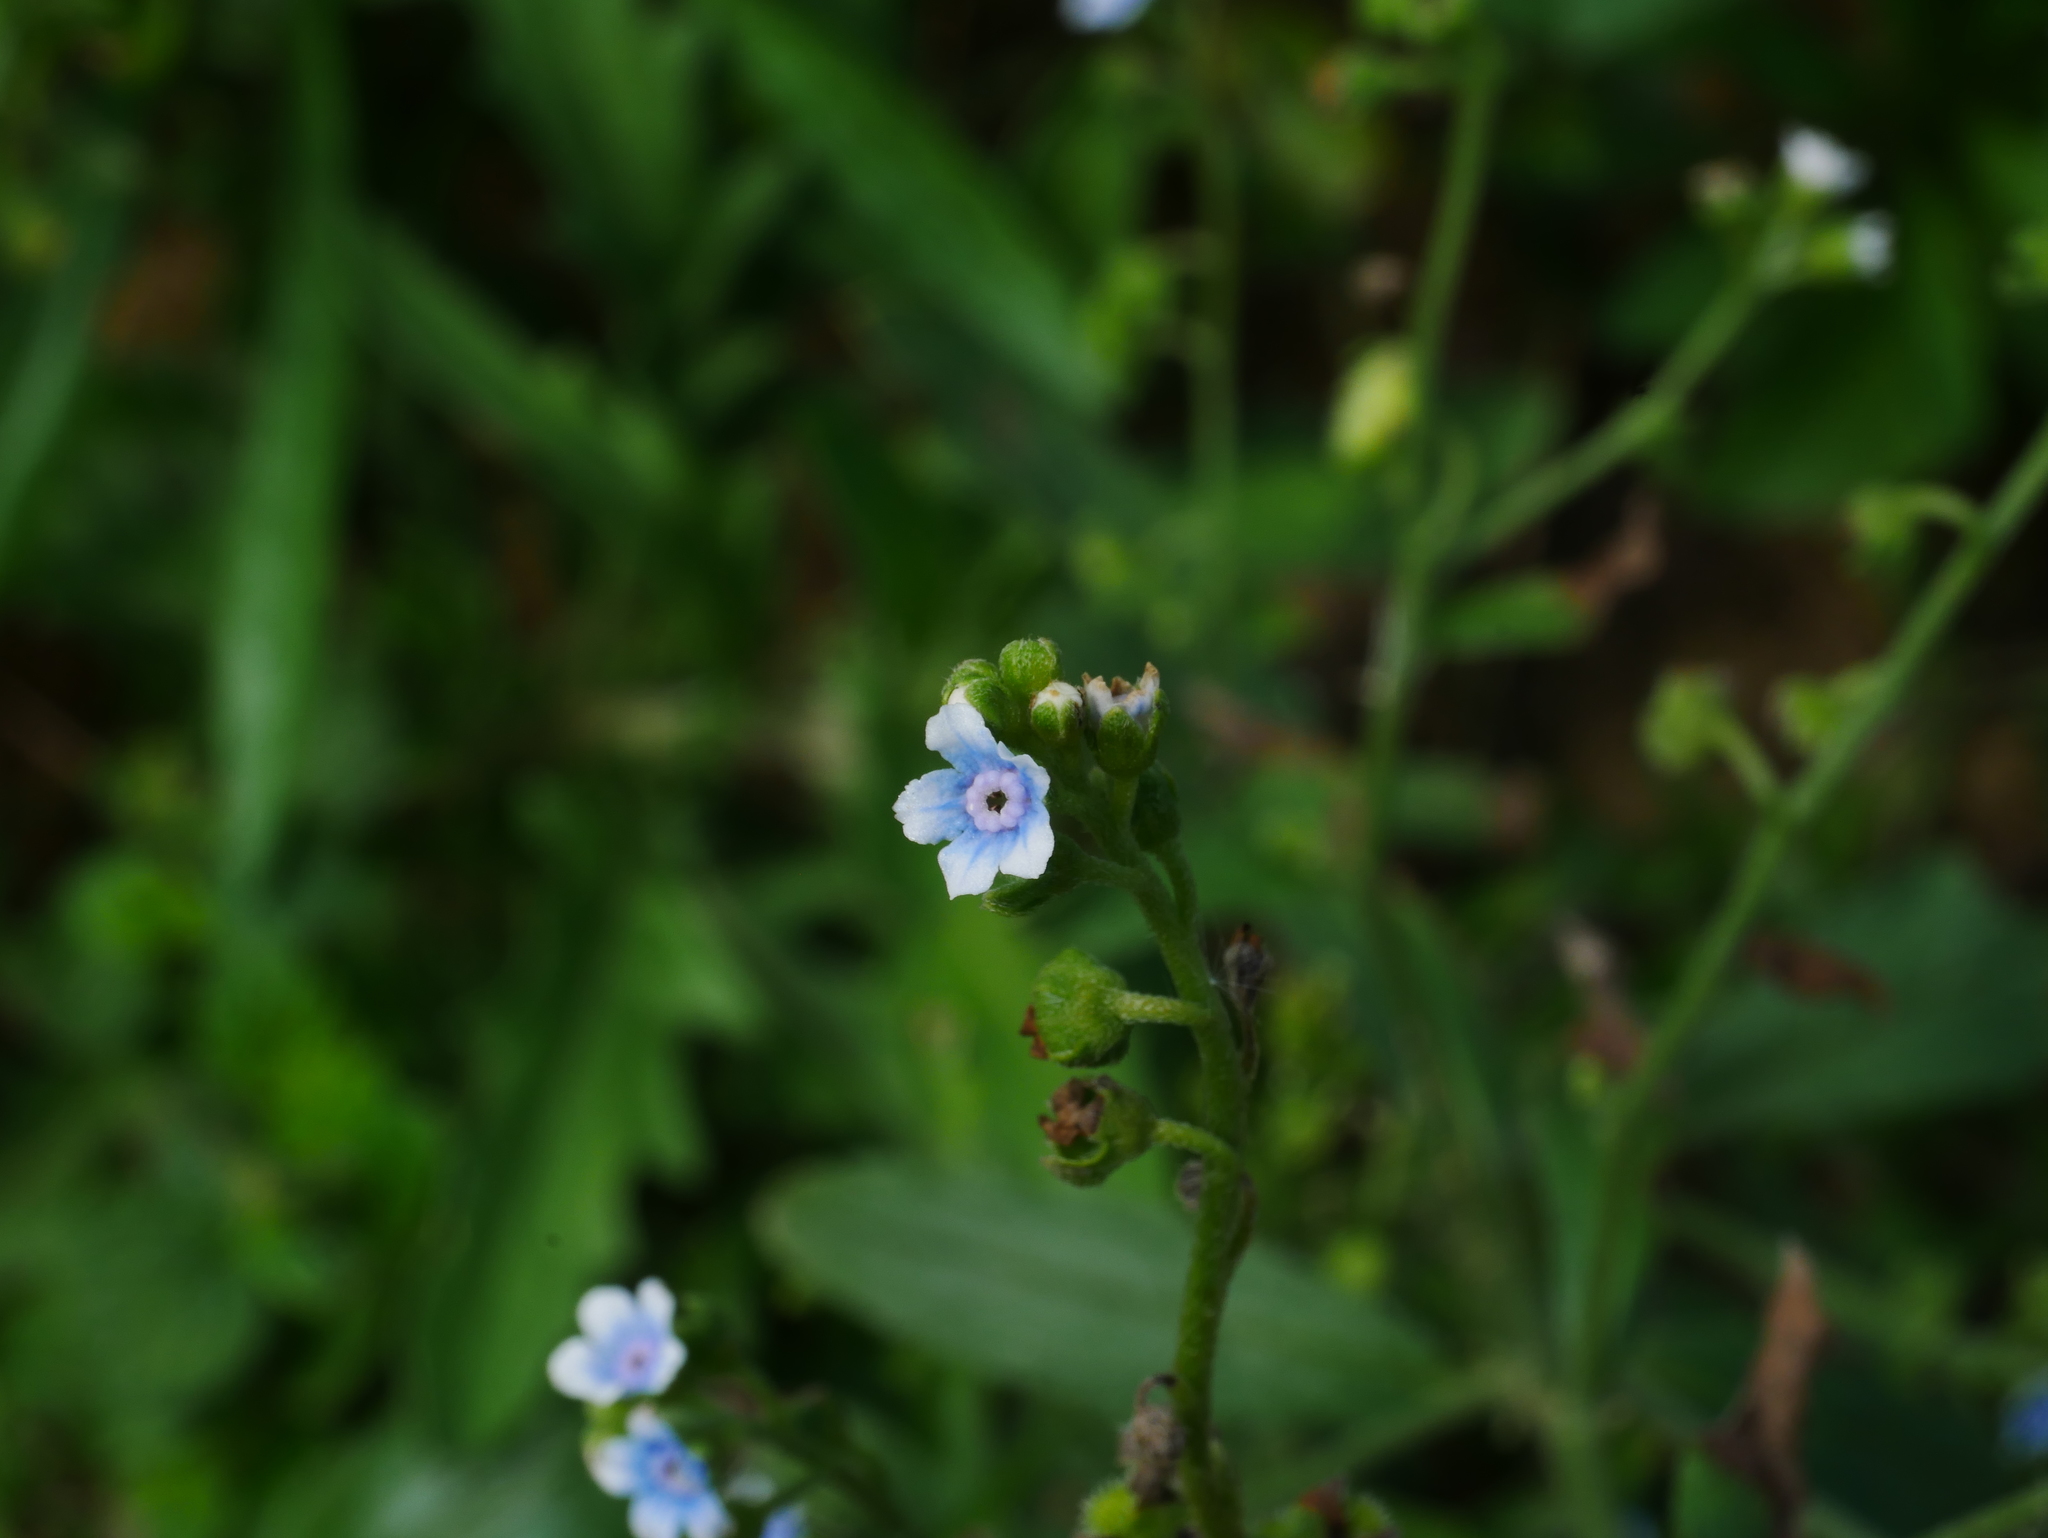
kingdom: Plantae
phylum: Tracheophyta
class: Magnoliopsida
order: Boraginales
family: Boraginaceae
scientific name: Boraginaceae
